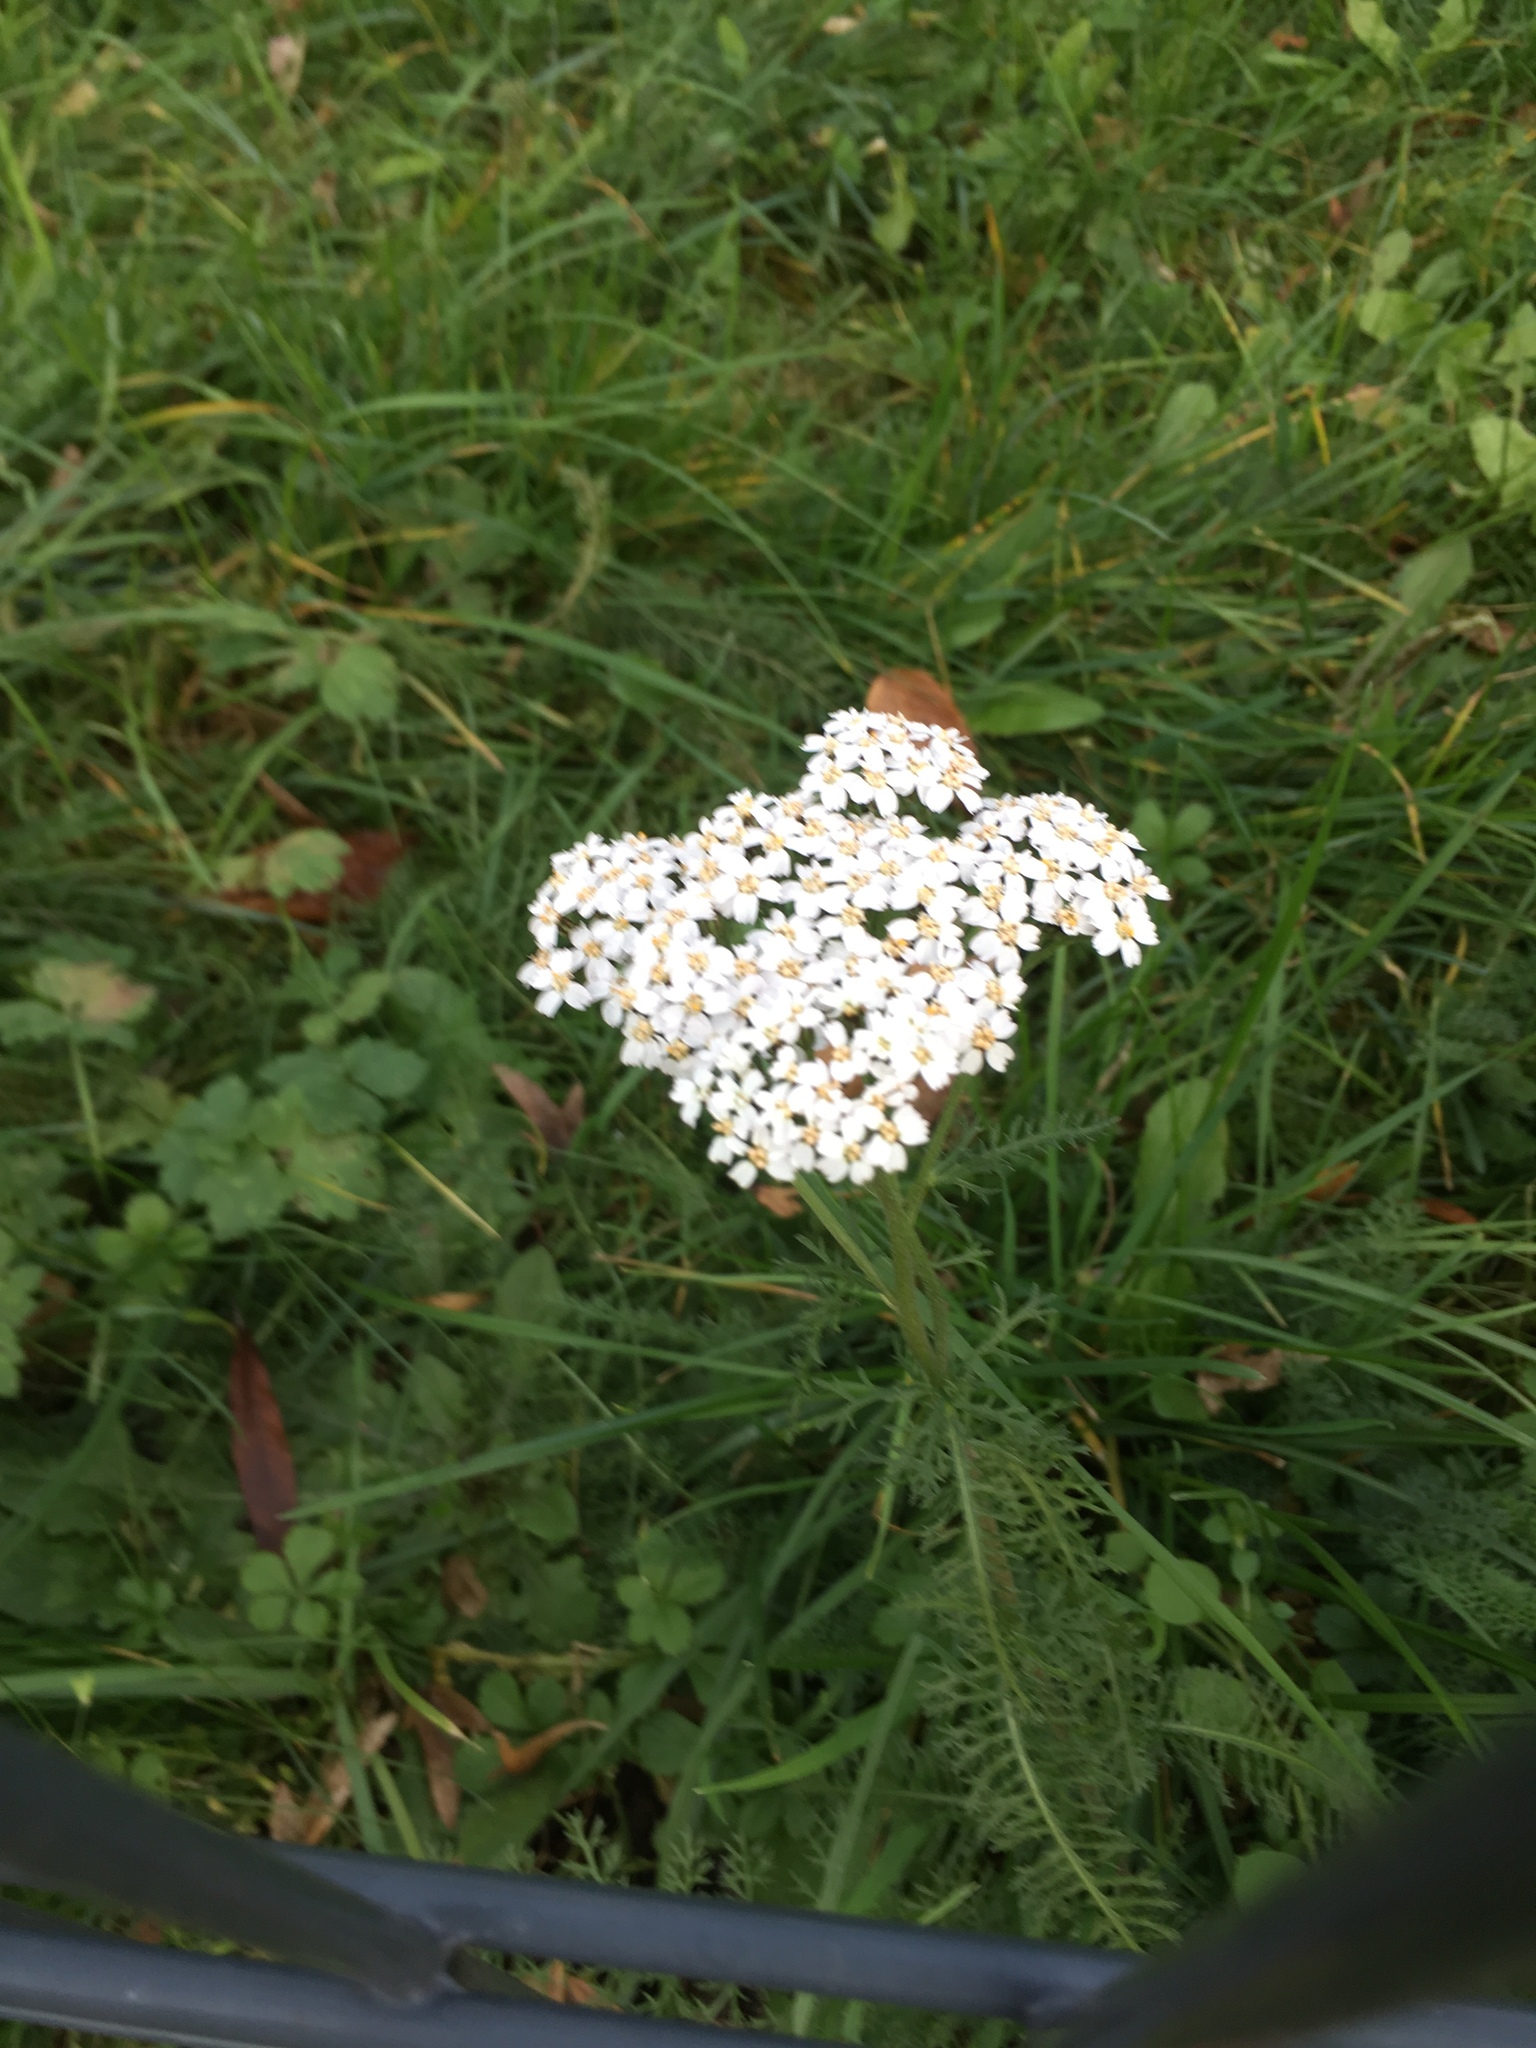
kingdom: Plantae
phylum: Tracheophyta
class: Magnoliopsida
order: Asterales
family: Asteraceae
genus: Achillea
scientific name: Achillea millefolium
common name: Yarrow
